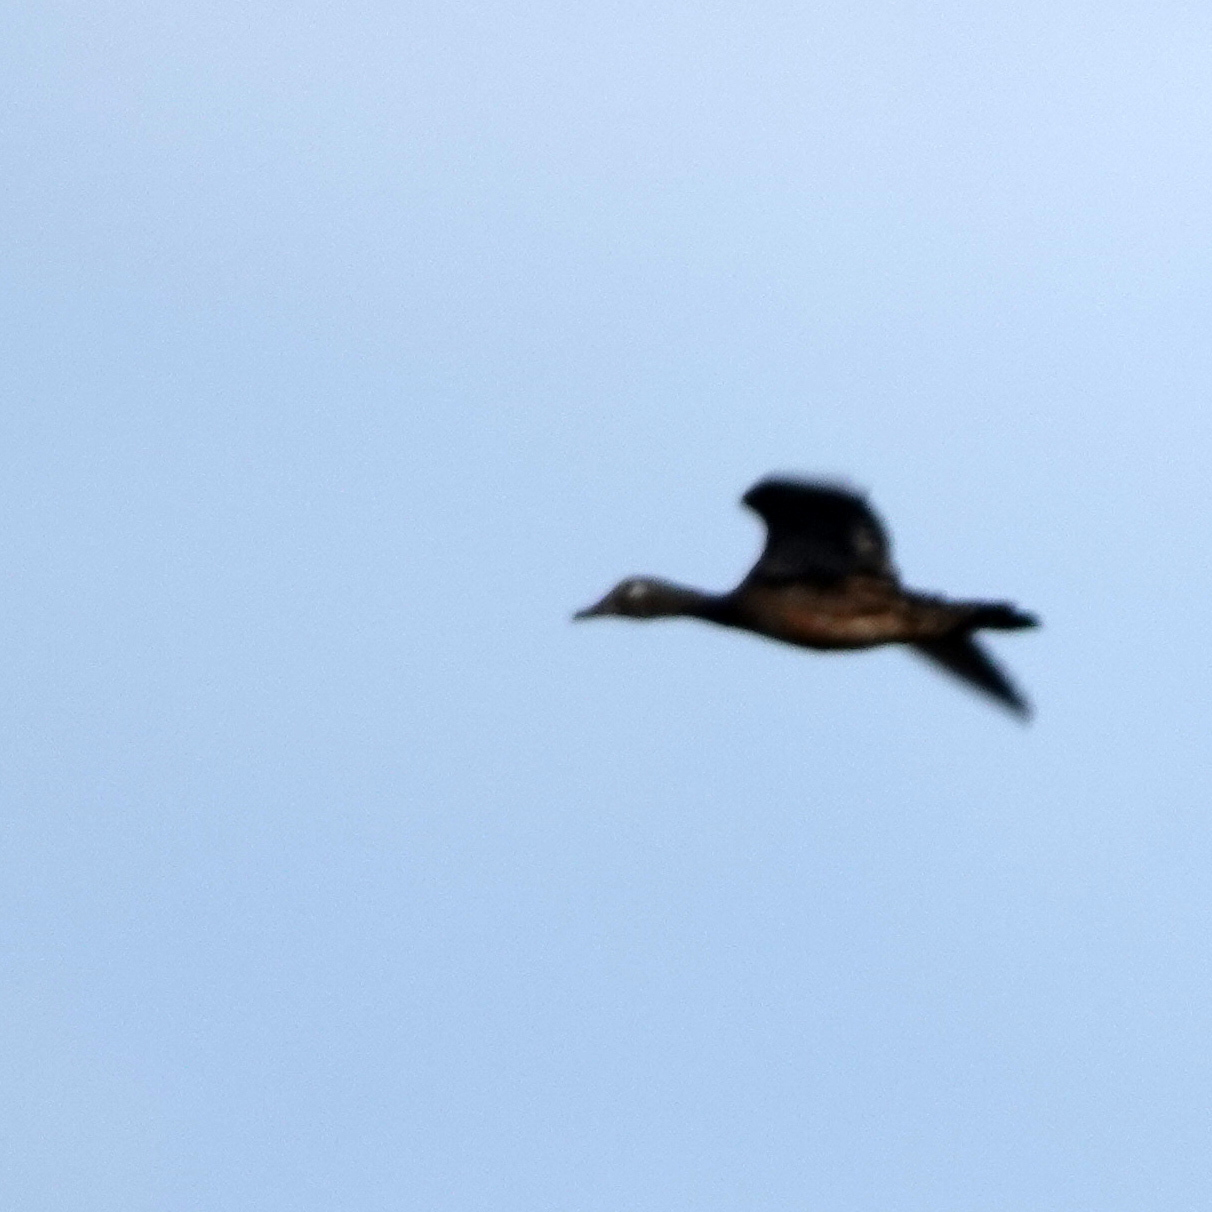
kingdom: Animalia
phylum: Chordata
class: Aves
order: Anseriformes
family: Anatidae
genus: Aix
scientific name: Aix sponsa
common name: Wood duck
